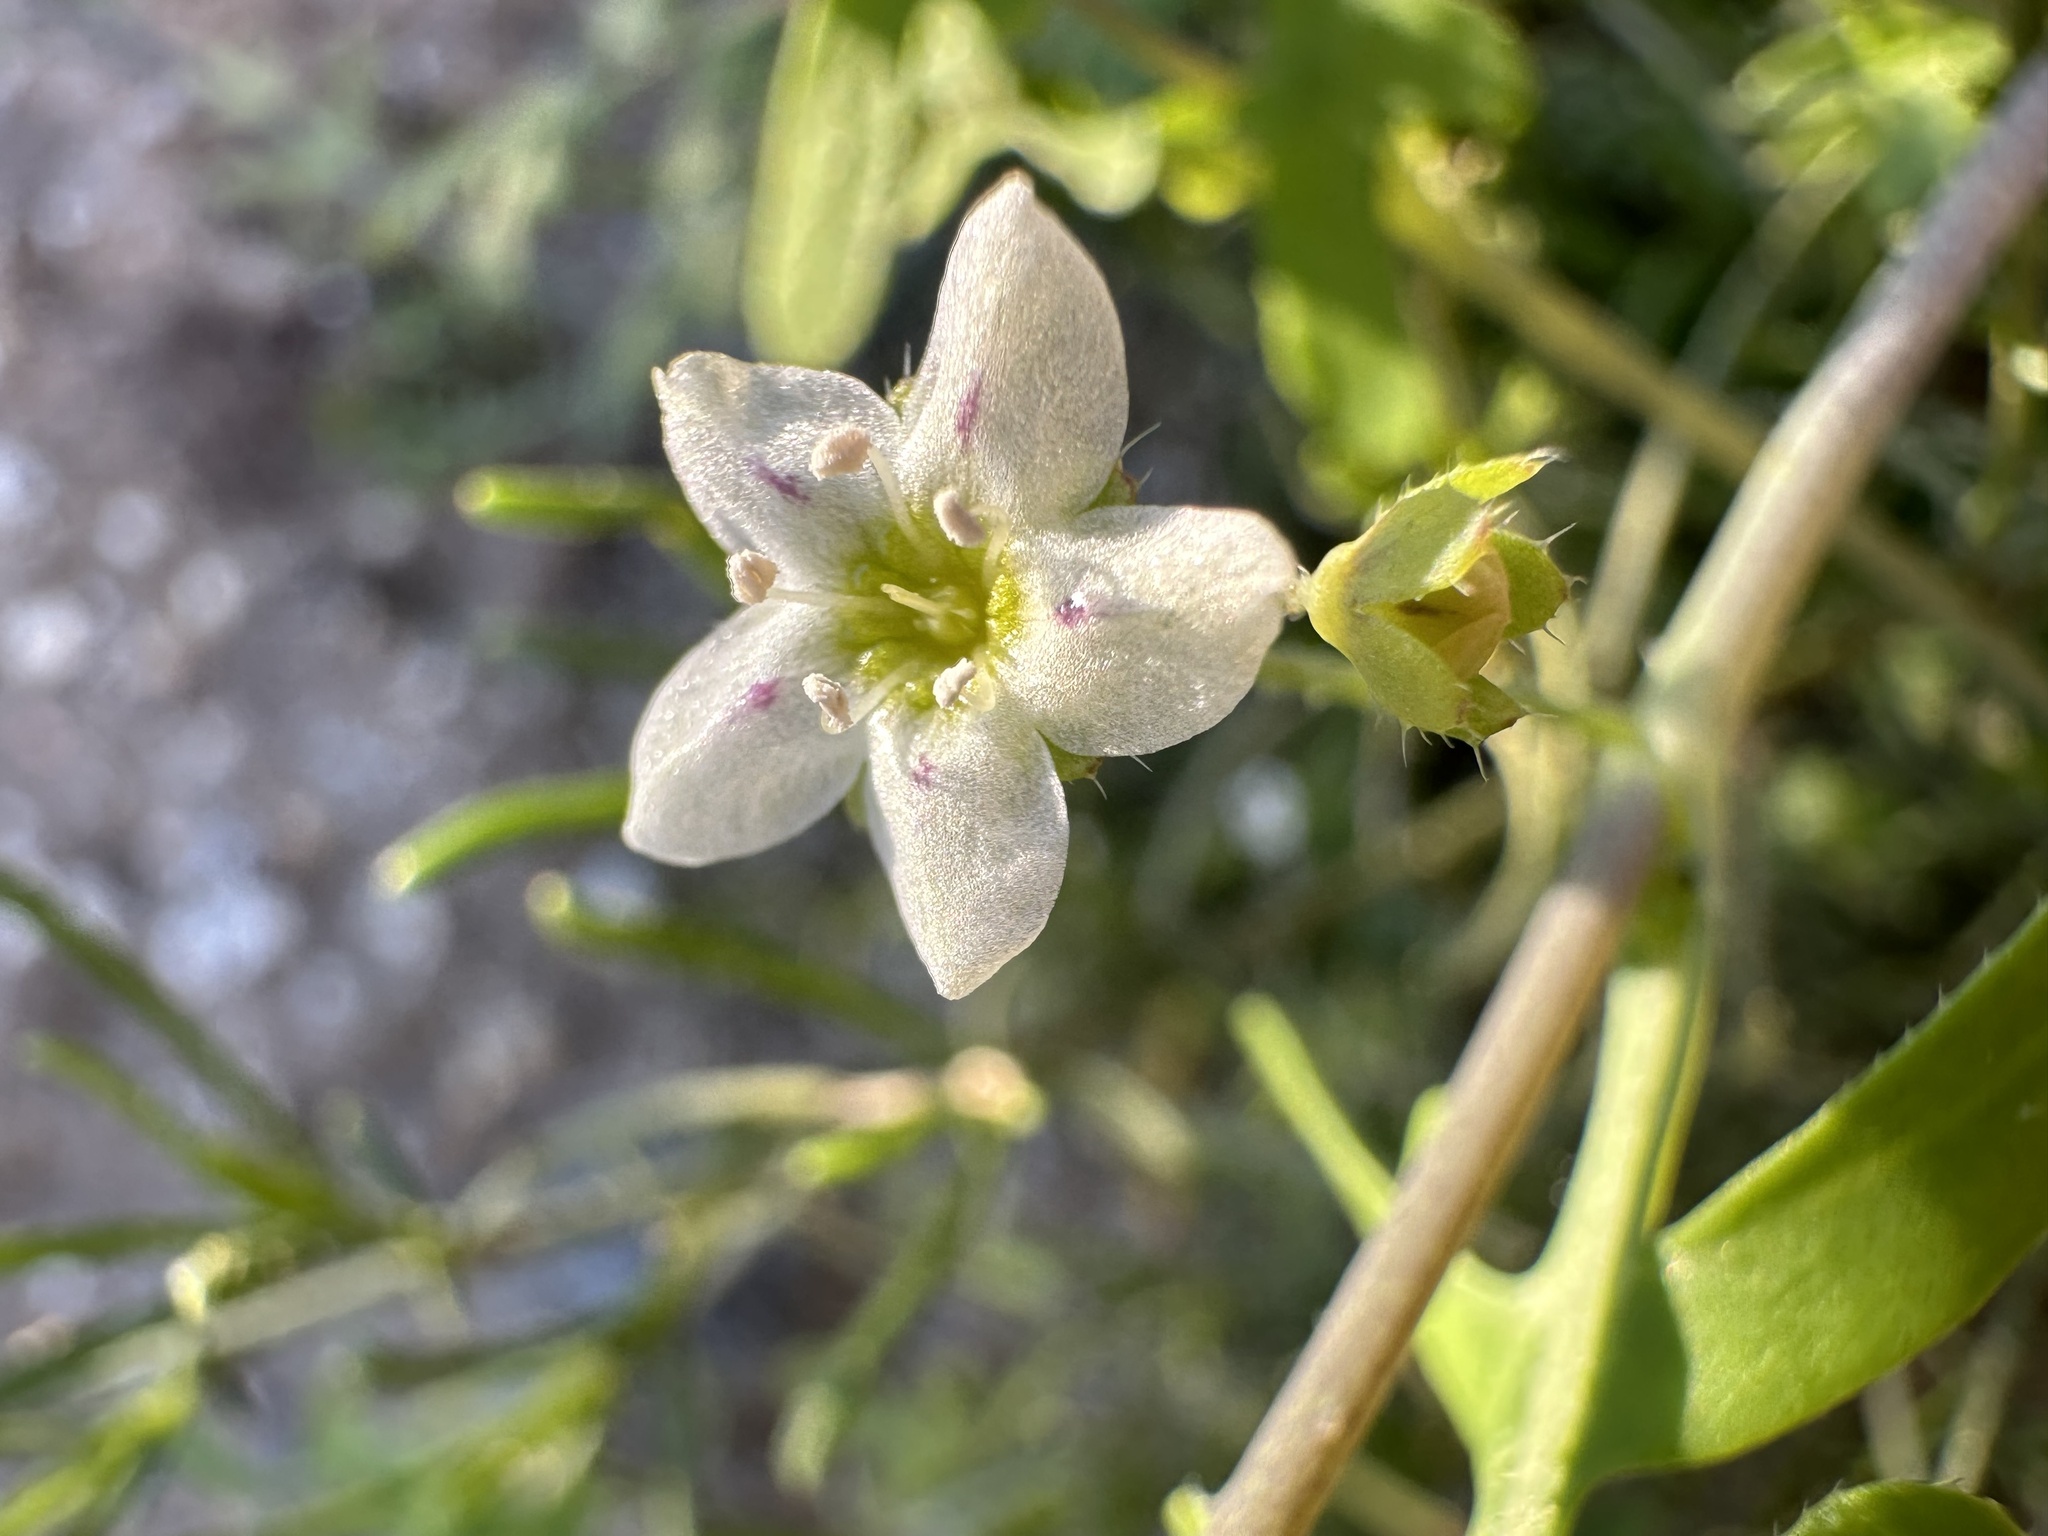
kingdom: Plantae
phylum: Tracheophyta
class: Magnoliopsida
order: Boraginales
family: Hydrophyllaceae
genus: Pholistoma
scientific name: Pholistoma membranaceum
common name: White fiesta-flower
